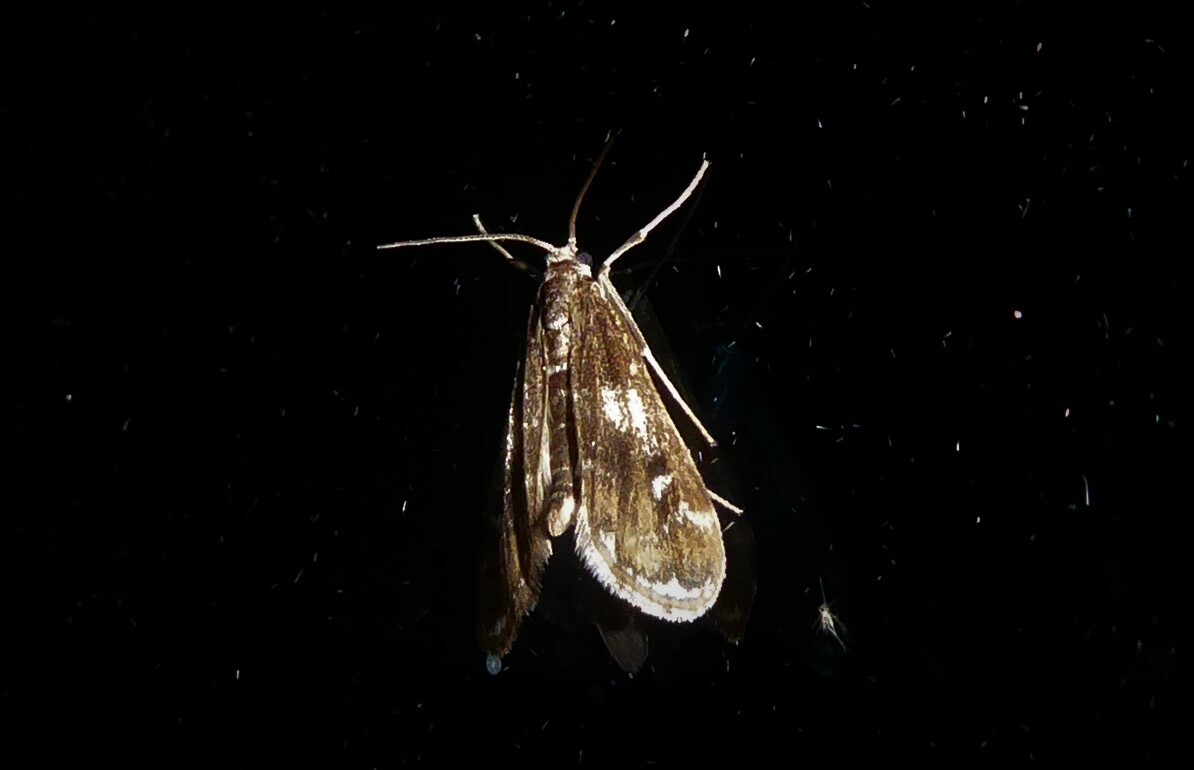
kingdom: Animalia
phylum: Arthropoda
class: Insecta
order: Lepidoptera
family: Crambidae
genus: Hygraula
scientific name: Hygraula nitens
